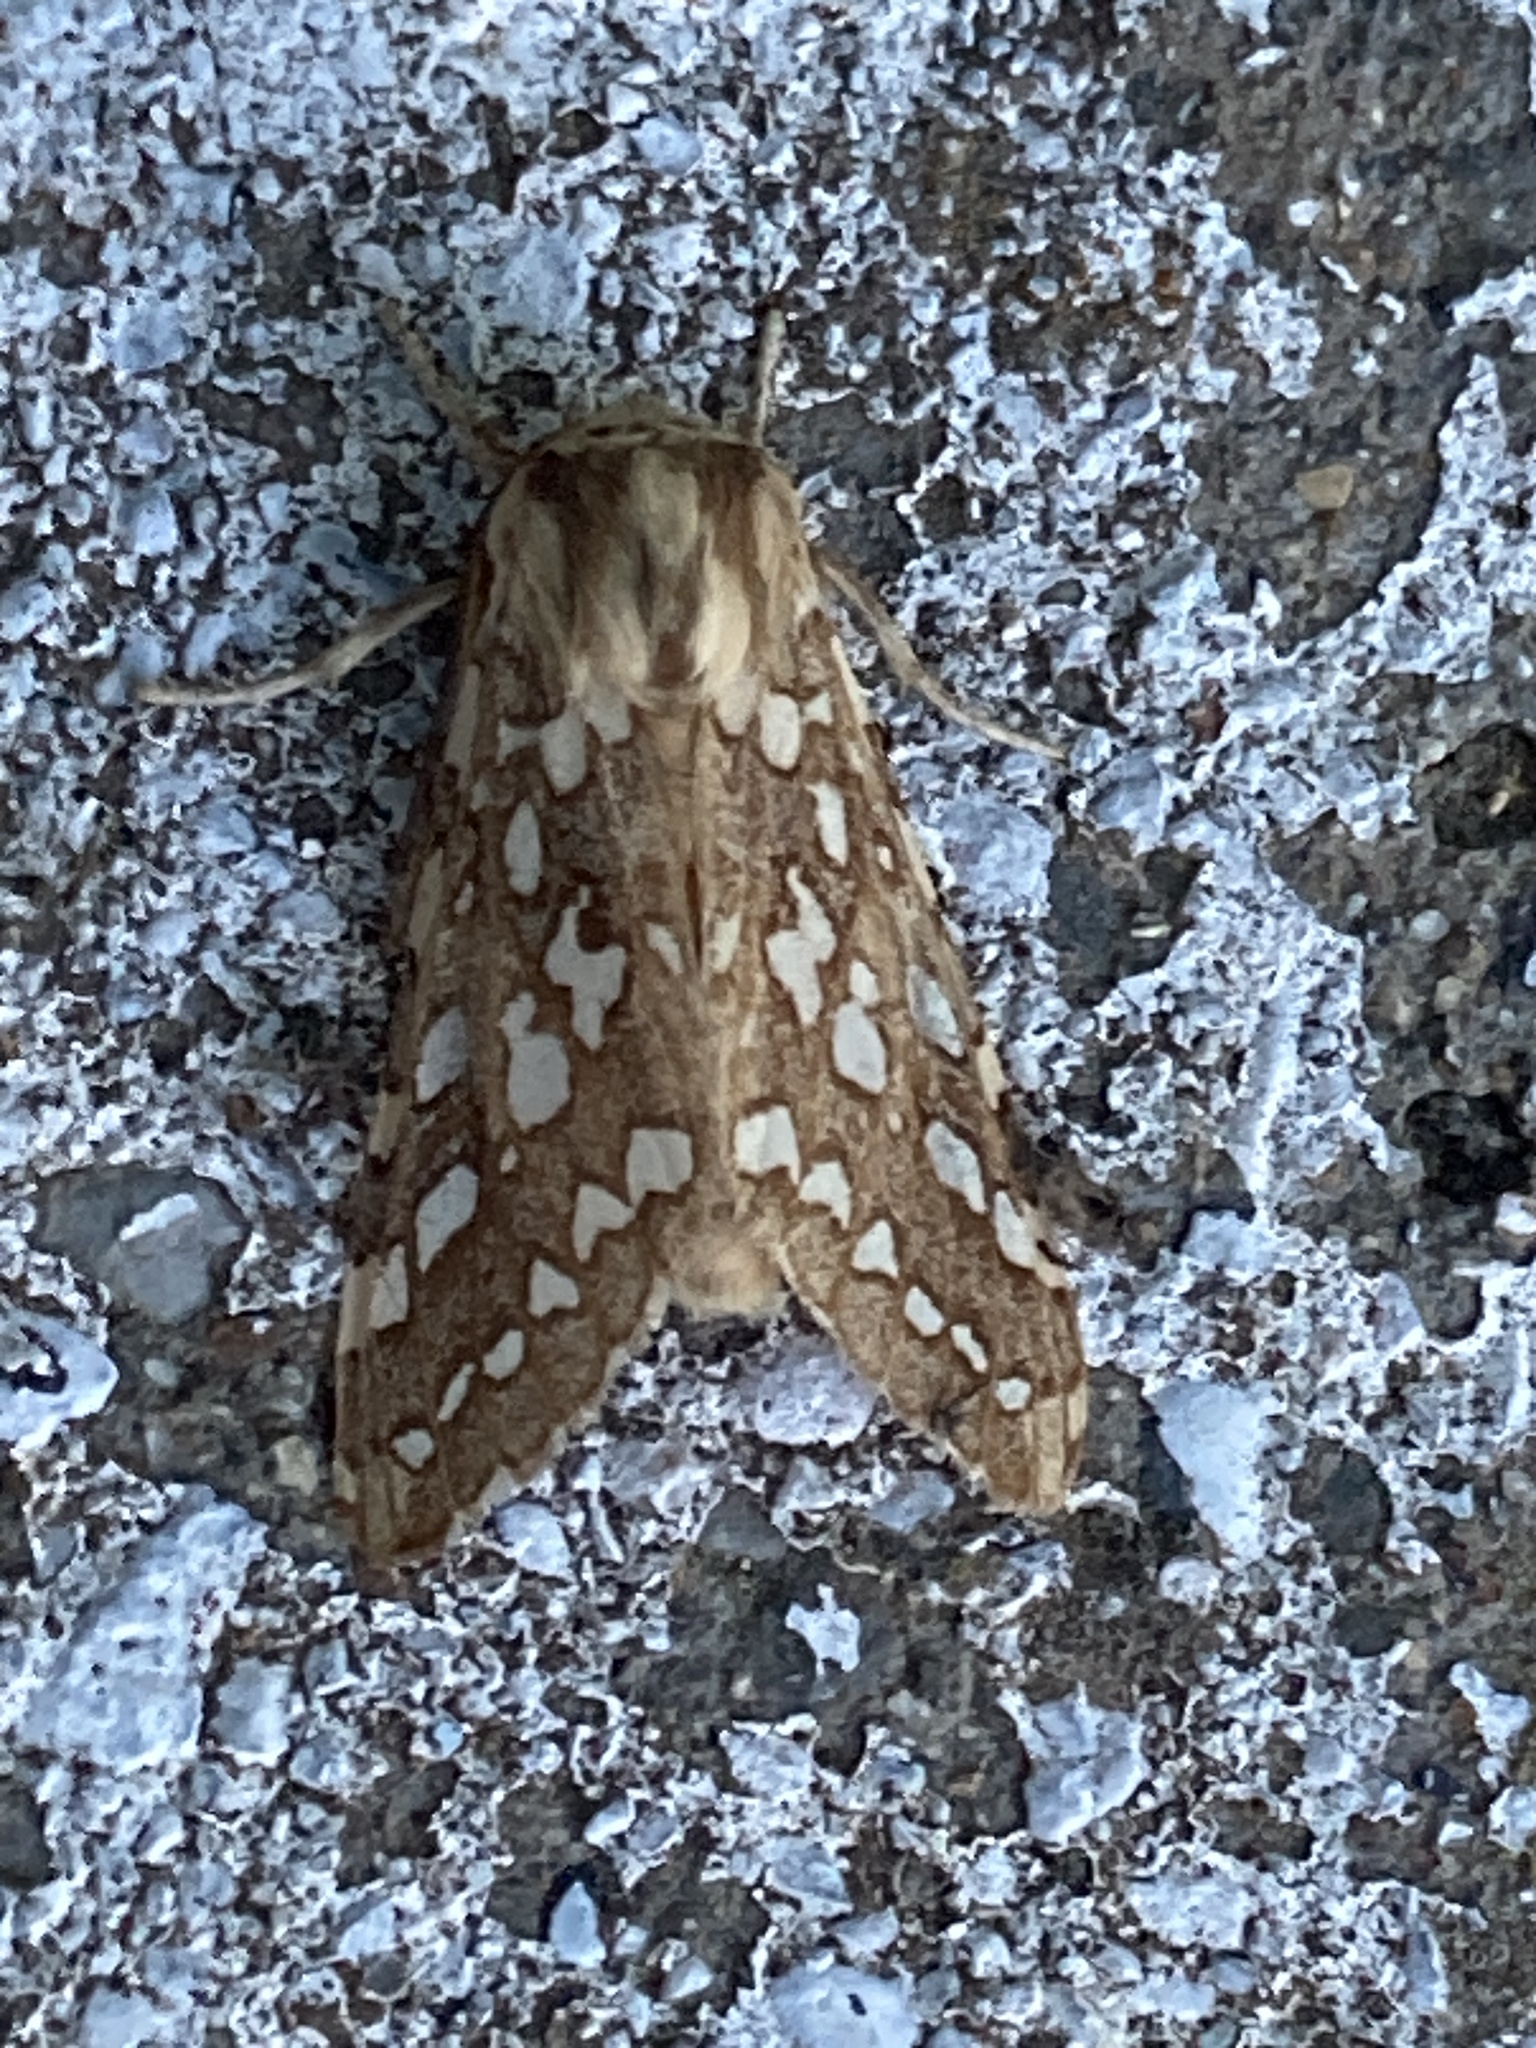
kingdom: Animalia
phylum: Arthropoda
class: Insecta
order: Lepidoptera
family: Erebidae
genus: Lophocampa
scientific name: Lophocampa argentata
